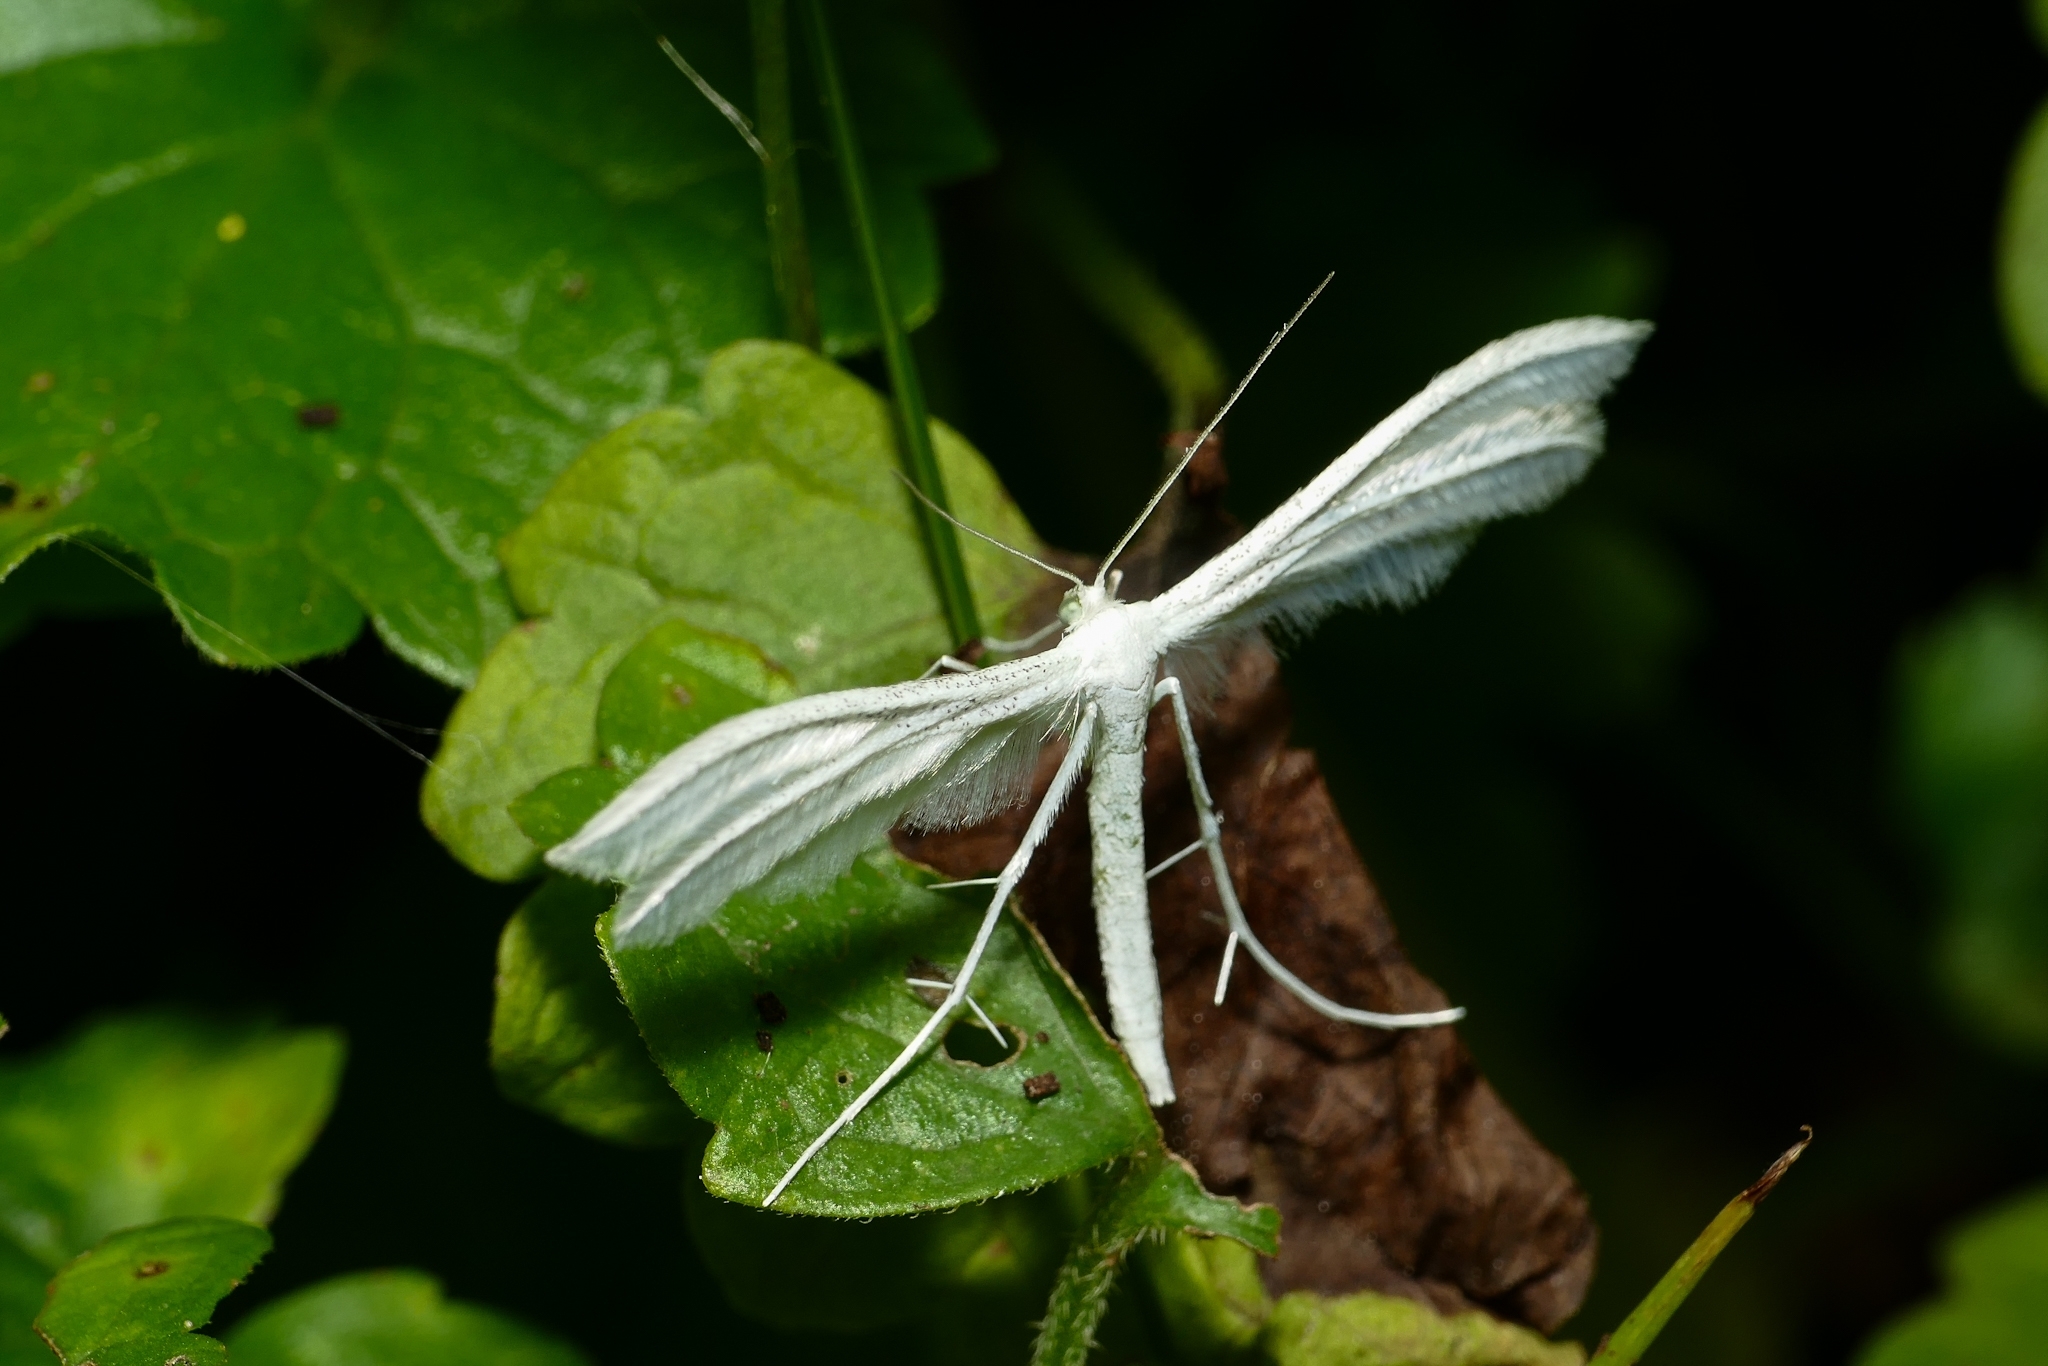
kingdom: Animalia
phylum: Arthropoda
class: Insecta
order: Lepidoptera
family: Pterophoridae
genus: Pterophorus
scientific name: Pterophorus pentadactyla
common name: White plume moth
